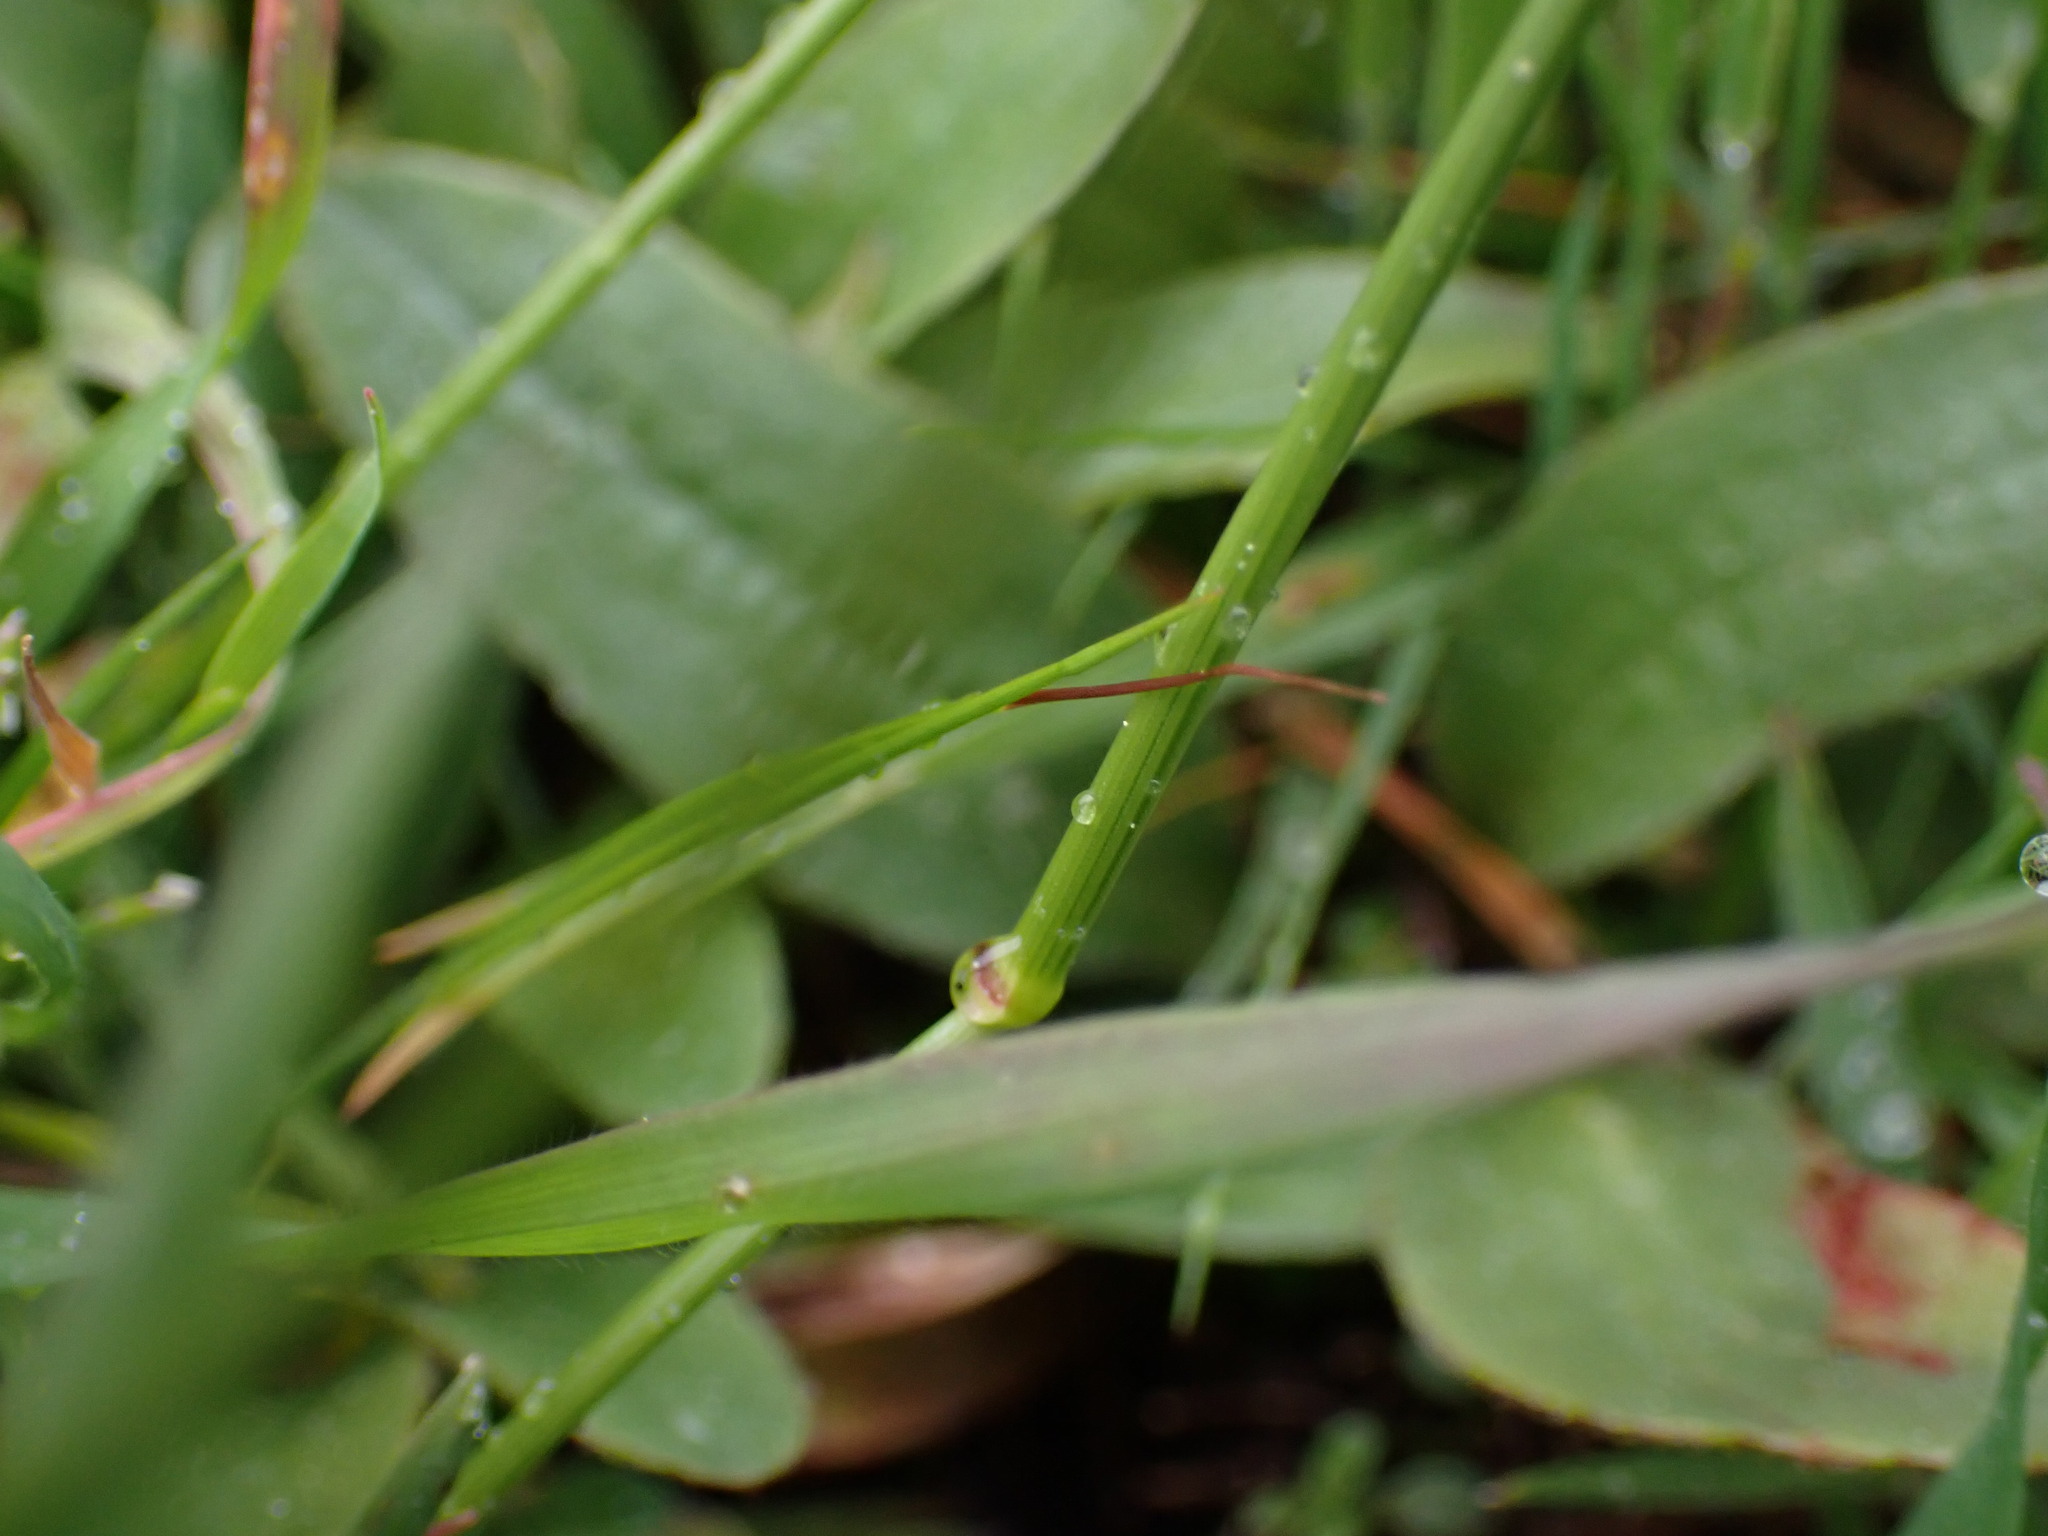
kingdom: Plantae
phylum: Tracheophyta
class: Magnoliopsida
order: Saxifragales
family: Saxifragaceae
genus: Micranthes
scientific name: Micranthes integrifolia
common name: Wholeleaf saxifrage
